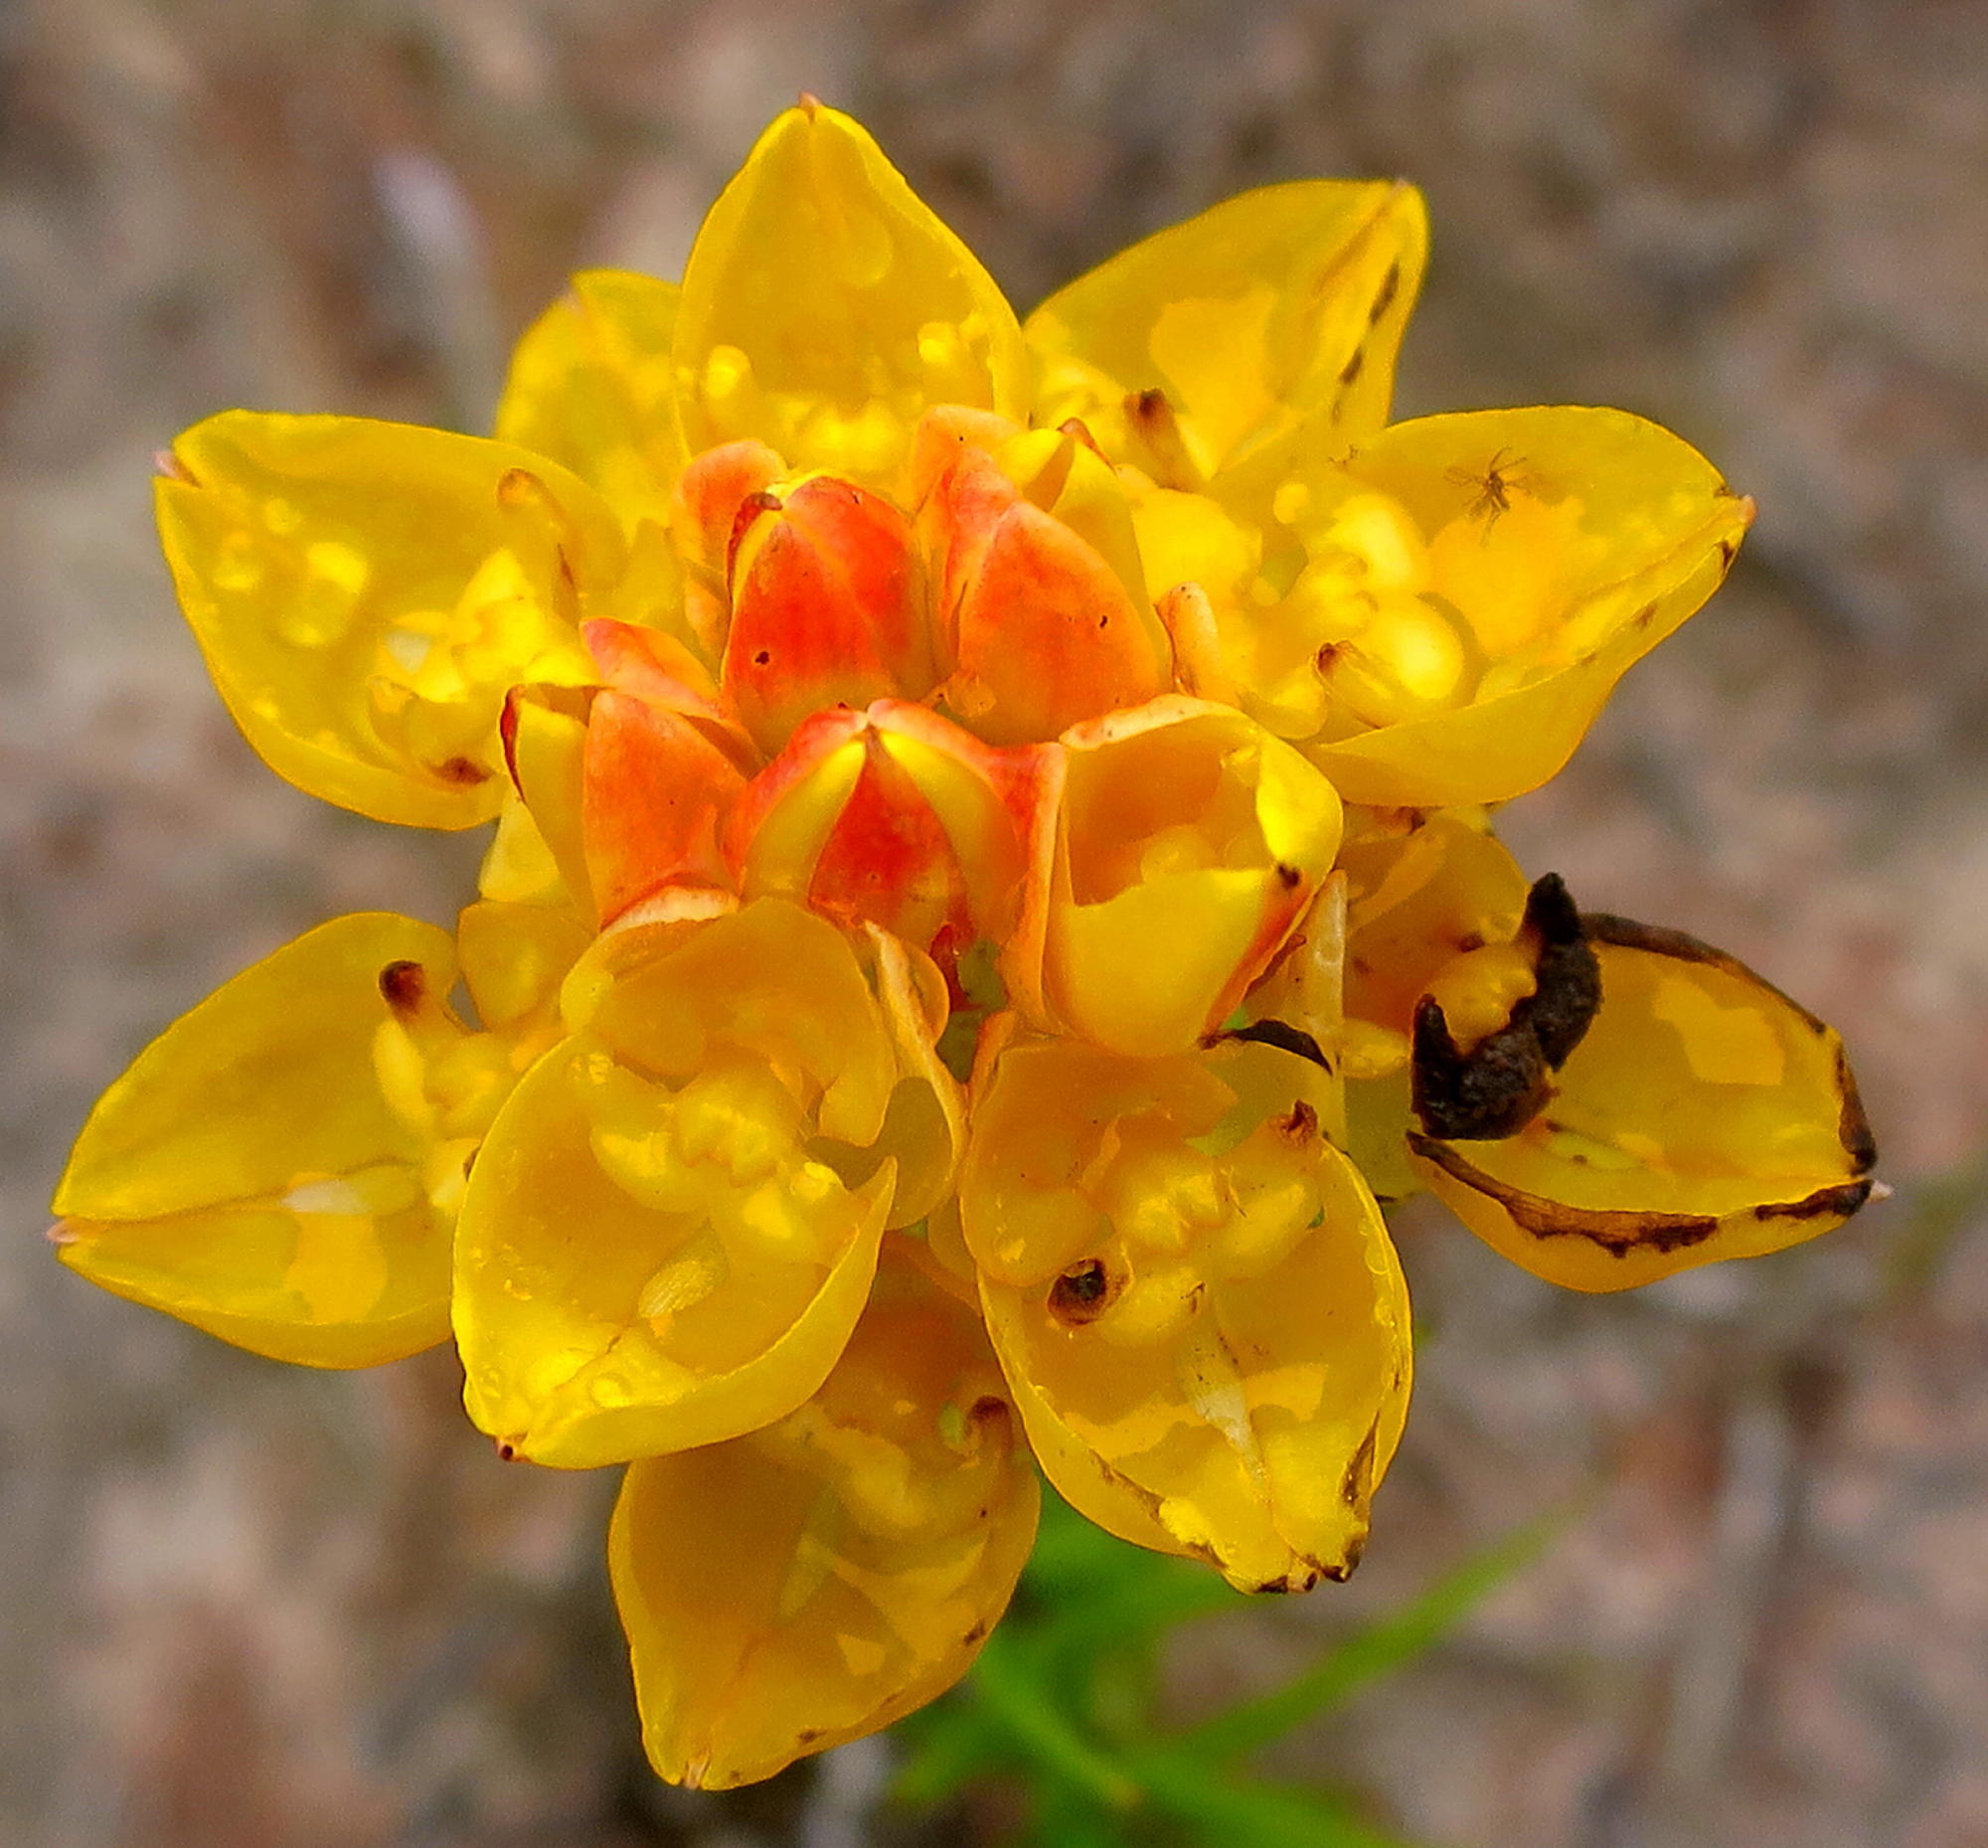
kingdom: Plantae
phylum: Tracheophyta
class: Liliopsida
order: Asparagales
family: Orchidaceae
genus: Ceratandra
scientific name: Ceratandra grandiflora
